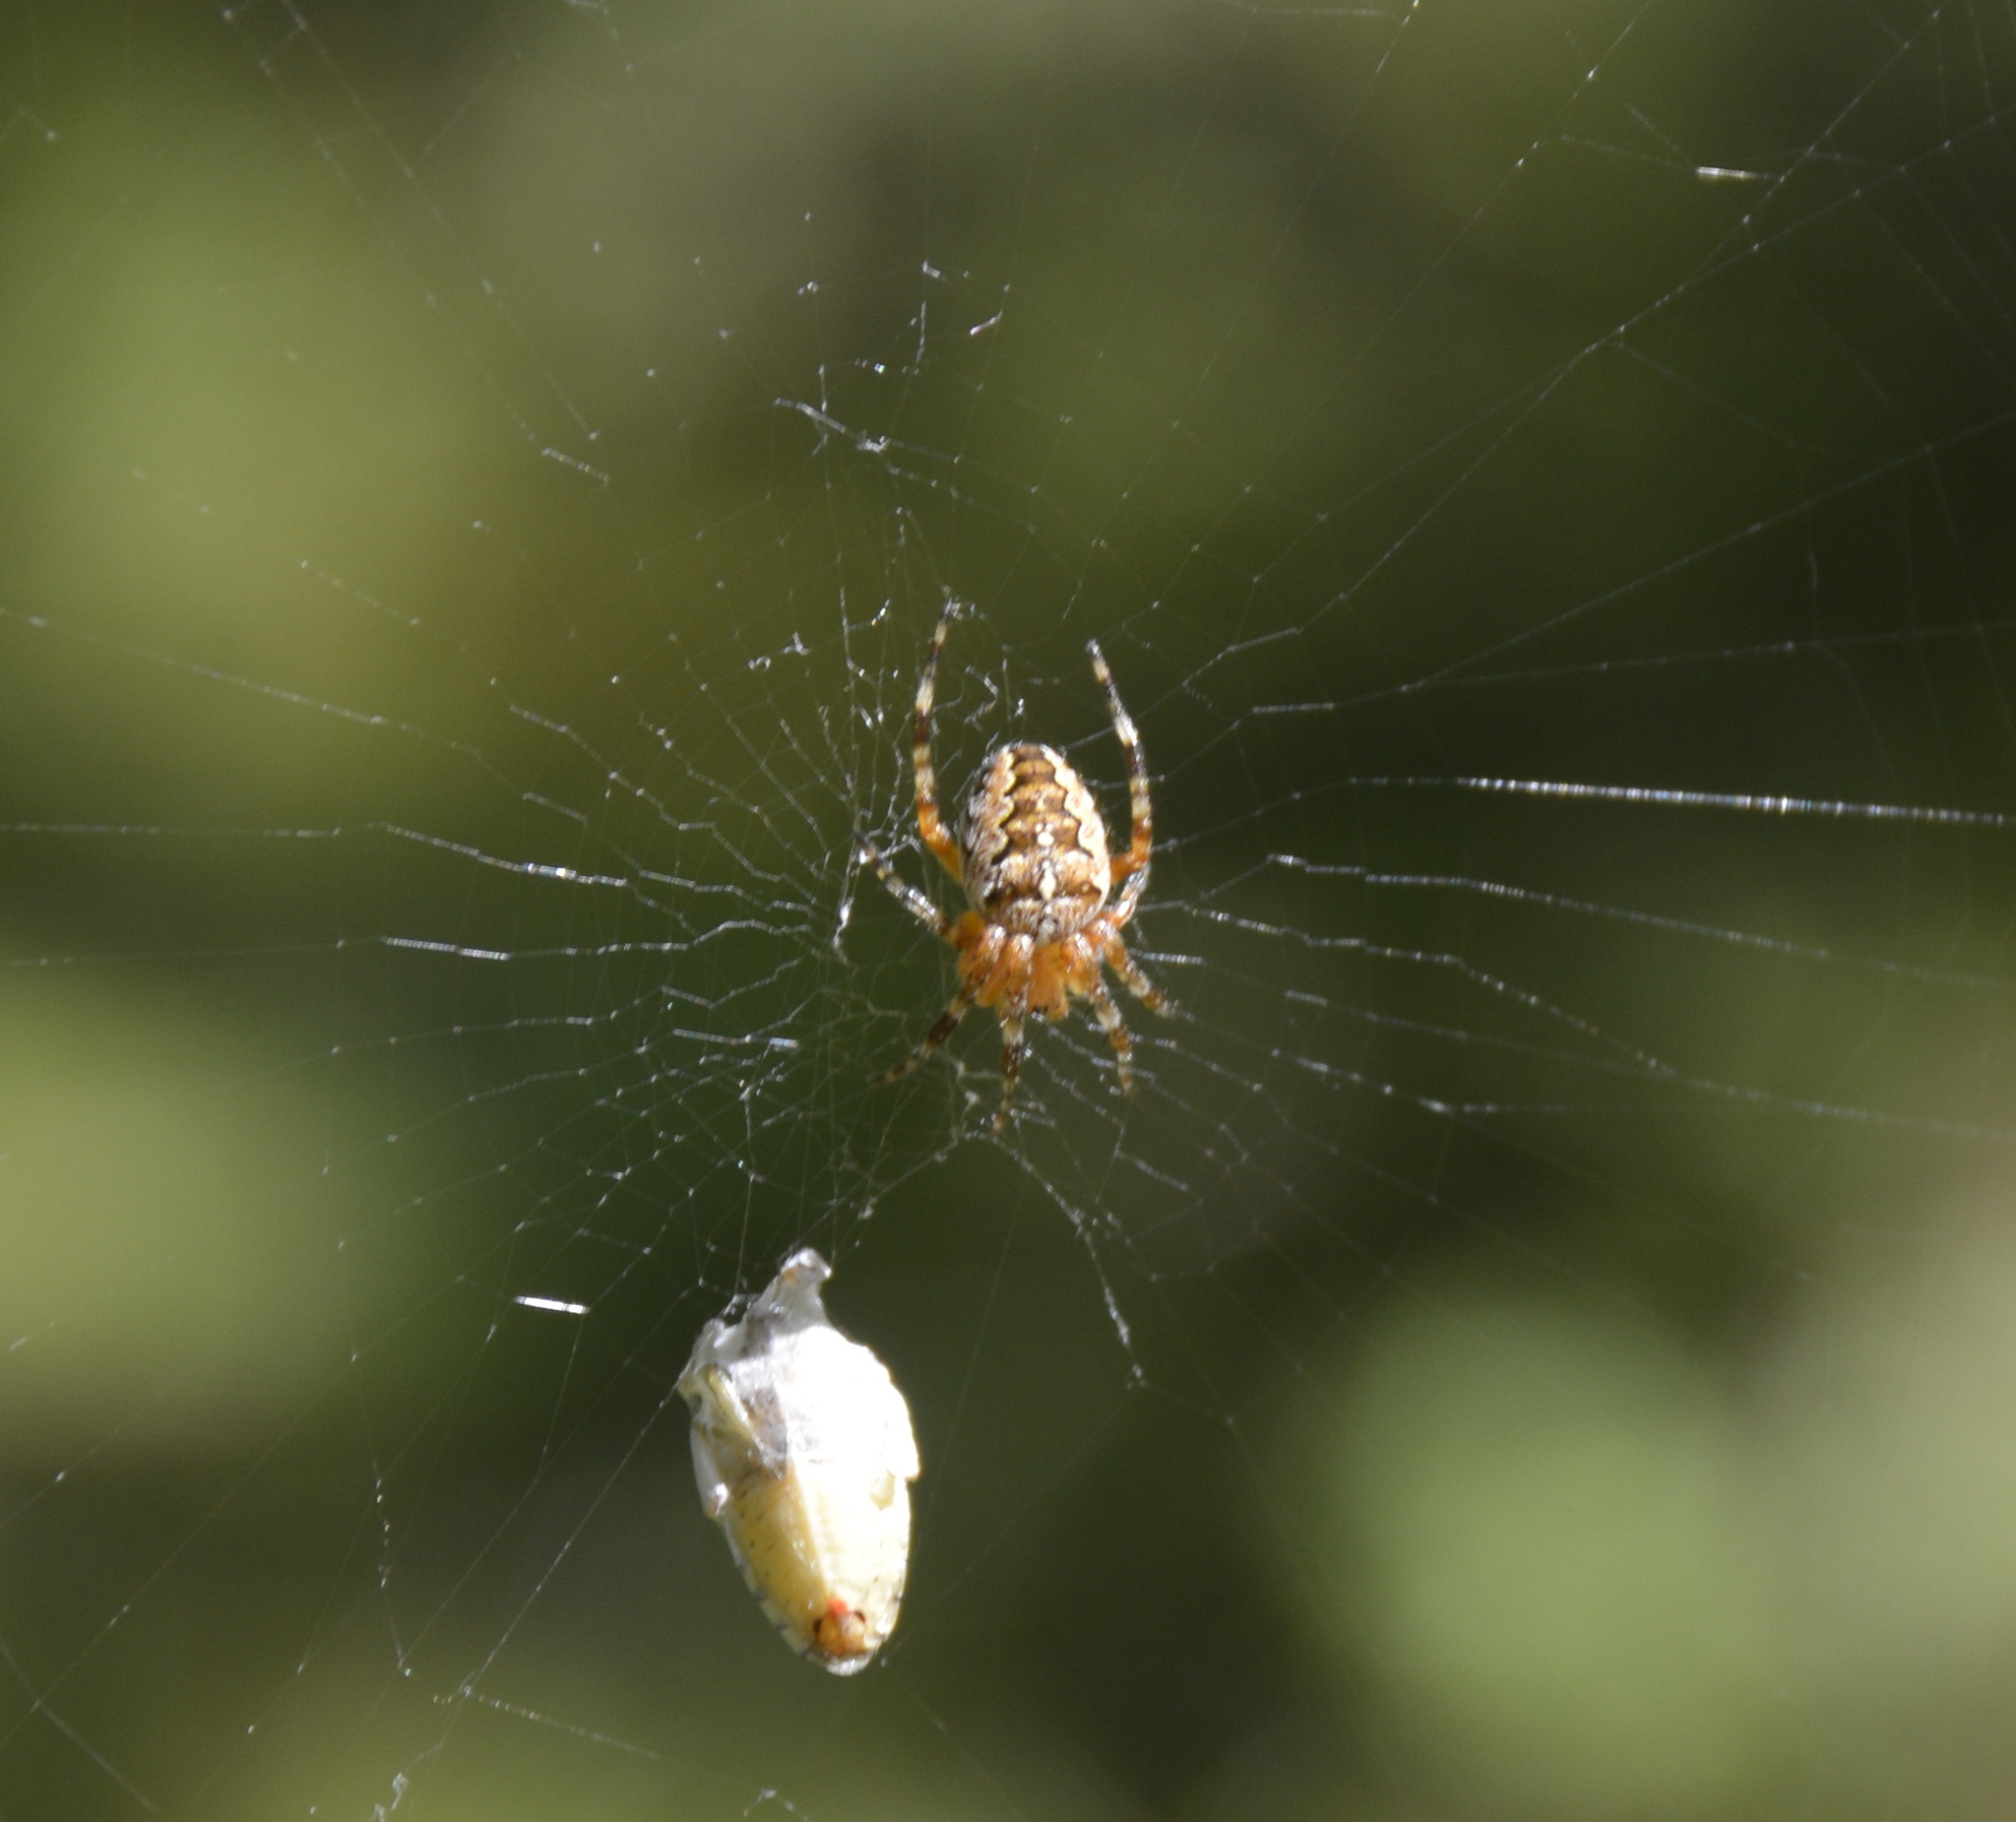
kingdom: Animalia
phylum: Arthropoda
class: Arachnida
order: Araneae
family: Araneidae
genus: Araneus
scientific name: Araneus diadematus
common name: Cross orbweaver
